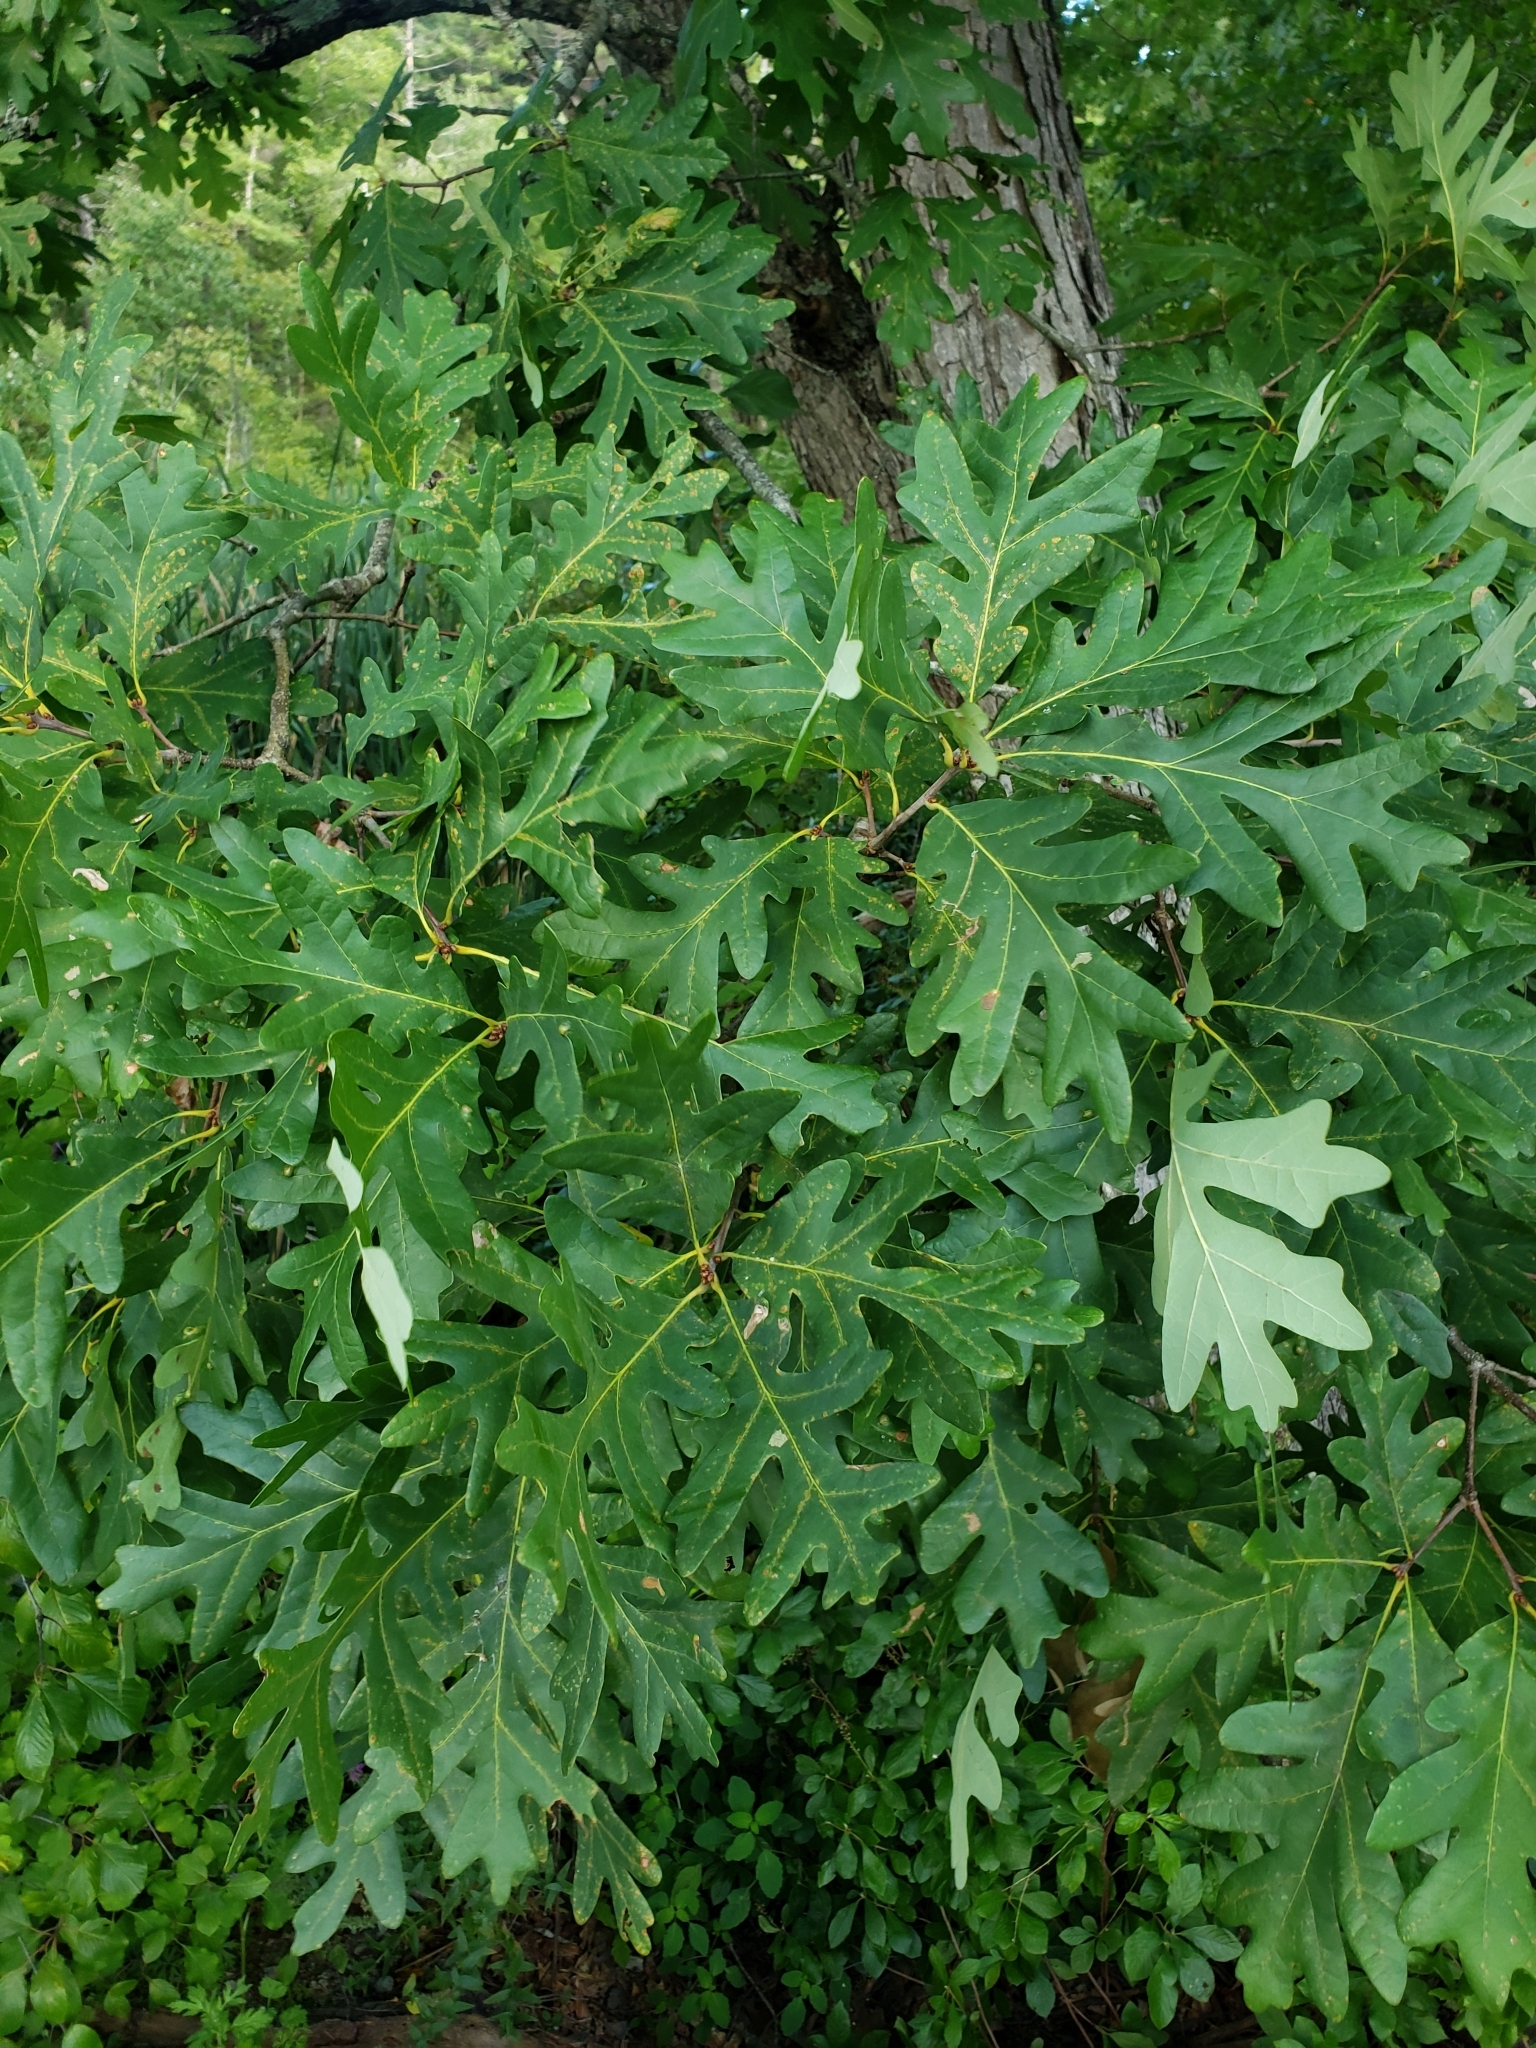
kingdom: Plantae
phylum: Tracheophyta
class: Magnoliopsida
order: Fagales
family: Fagaceae
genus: Quercus
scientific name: Quercus alba
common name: White oak
